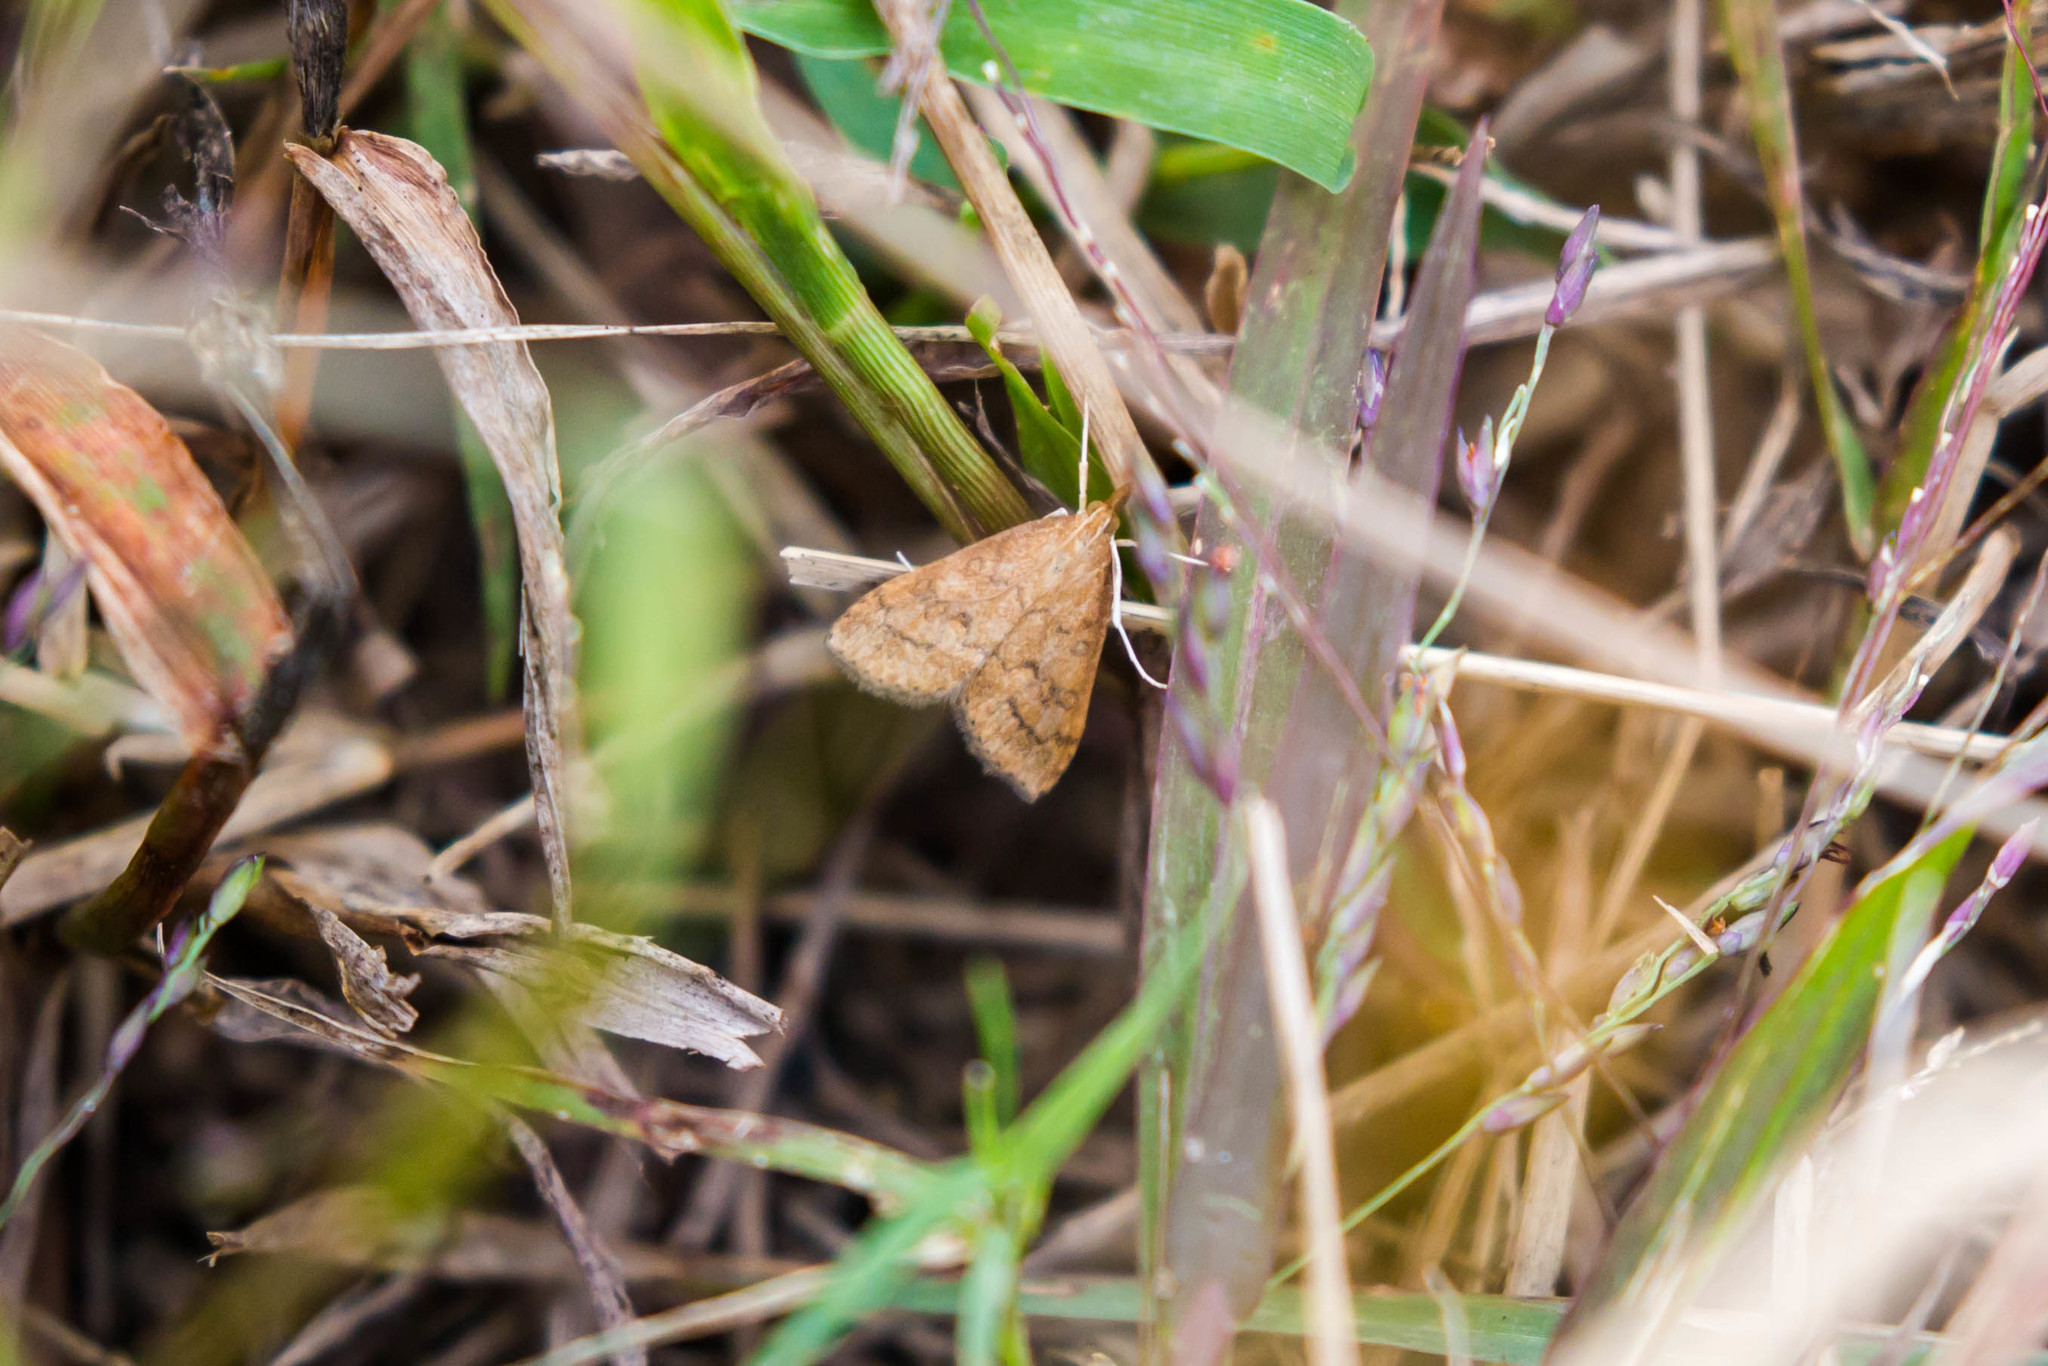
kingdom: Animalia
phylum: Arthropoda
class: Insecta
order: Lepidoptera
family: Crambidae
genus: Udea
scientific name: Udea rubigalis
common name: Celery leaftier moth
